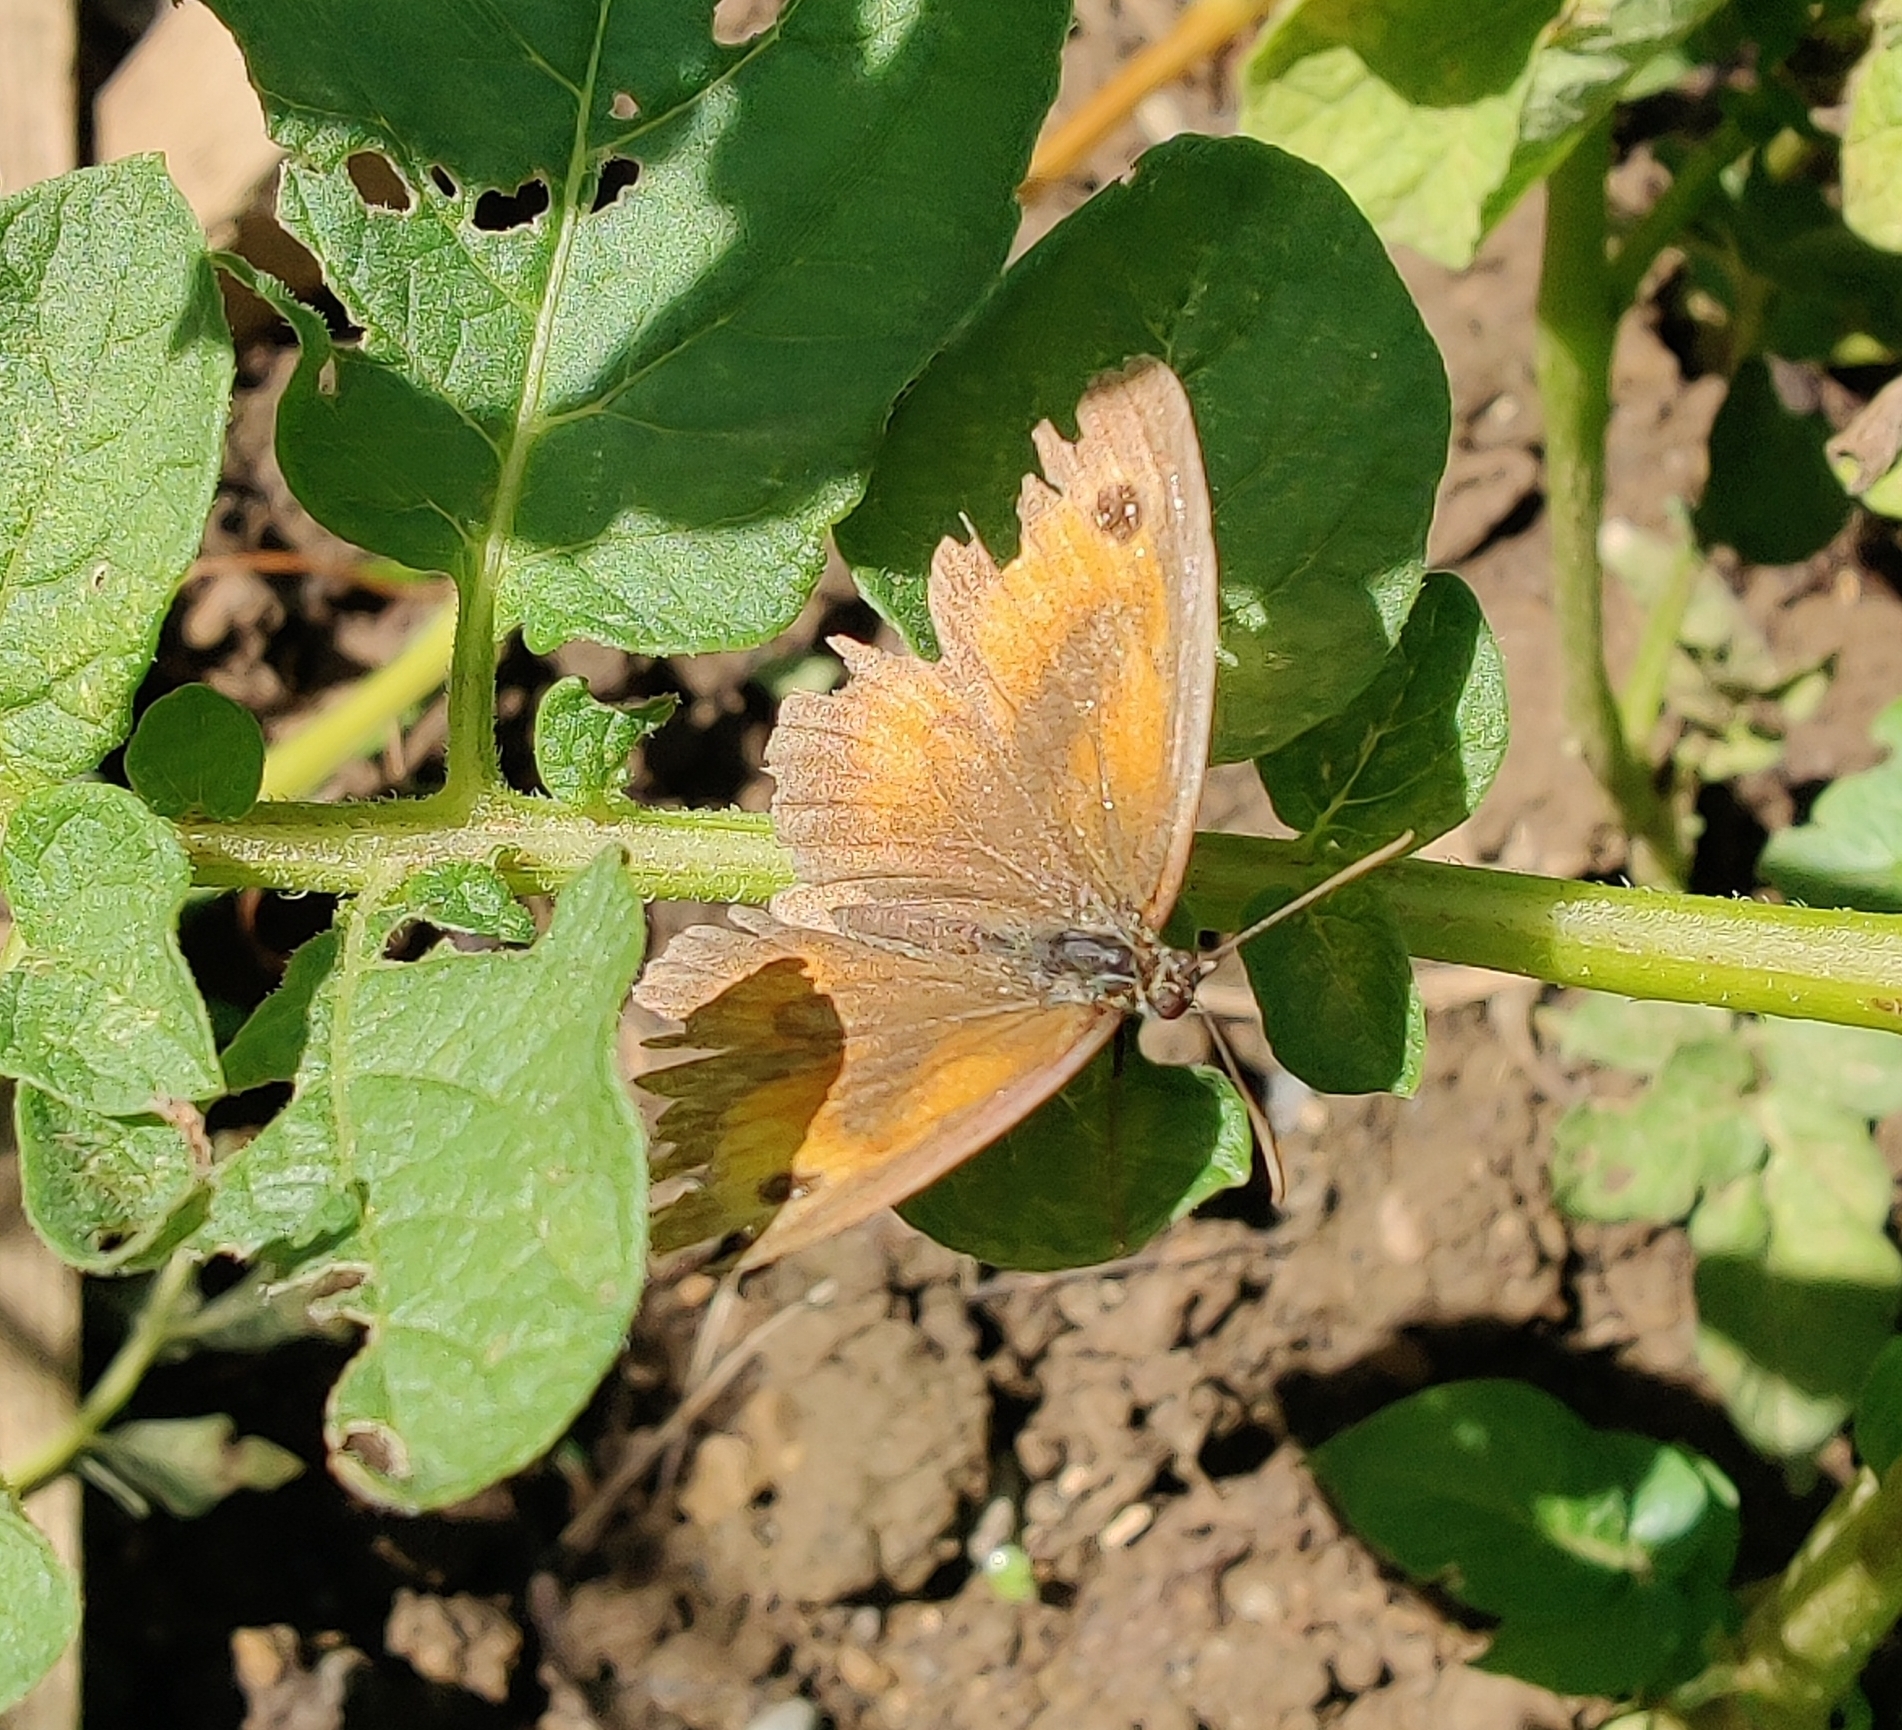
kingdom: Animalia
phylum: Arthropoda
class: Insecta
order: Lepidoptera
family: Nymphalidae
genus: Pyronia
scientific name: Pyronia tithonus
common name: Gatekeeper
